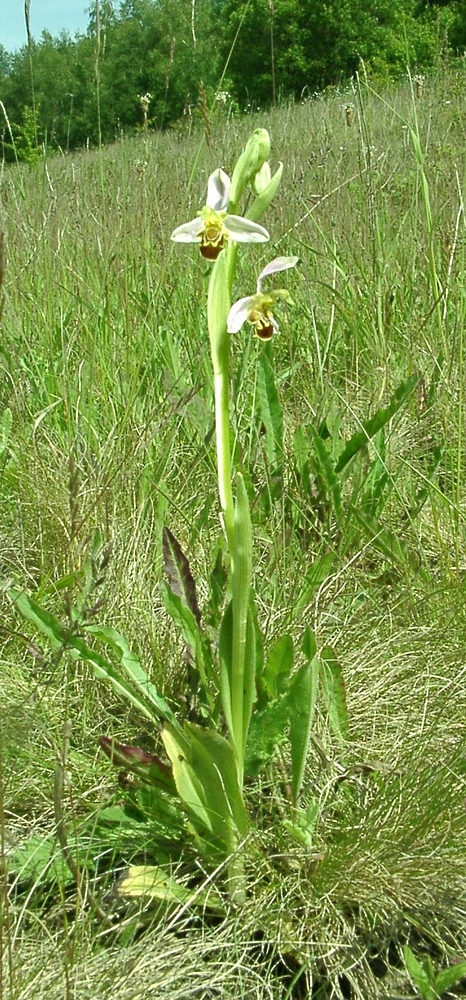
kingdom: Plantae
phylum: Tracheophyta
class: Liliopsida
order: Asparagales
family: Orchidaceae
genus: Ophrys
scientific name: Ophrys apifera
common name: Bee orchid
